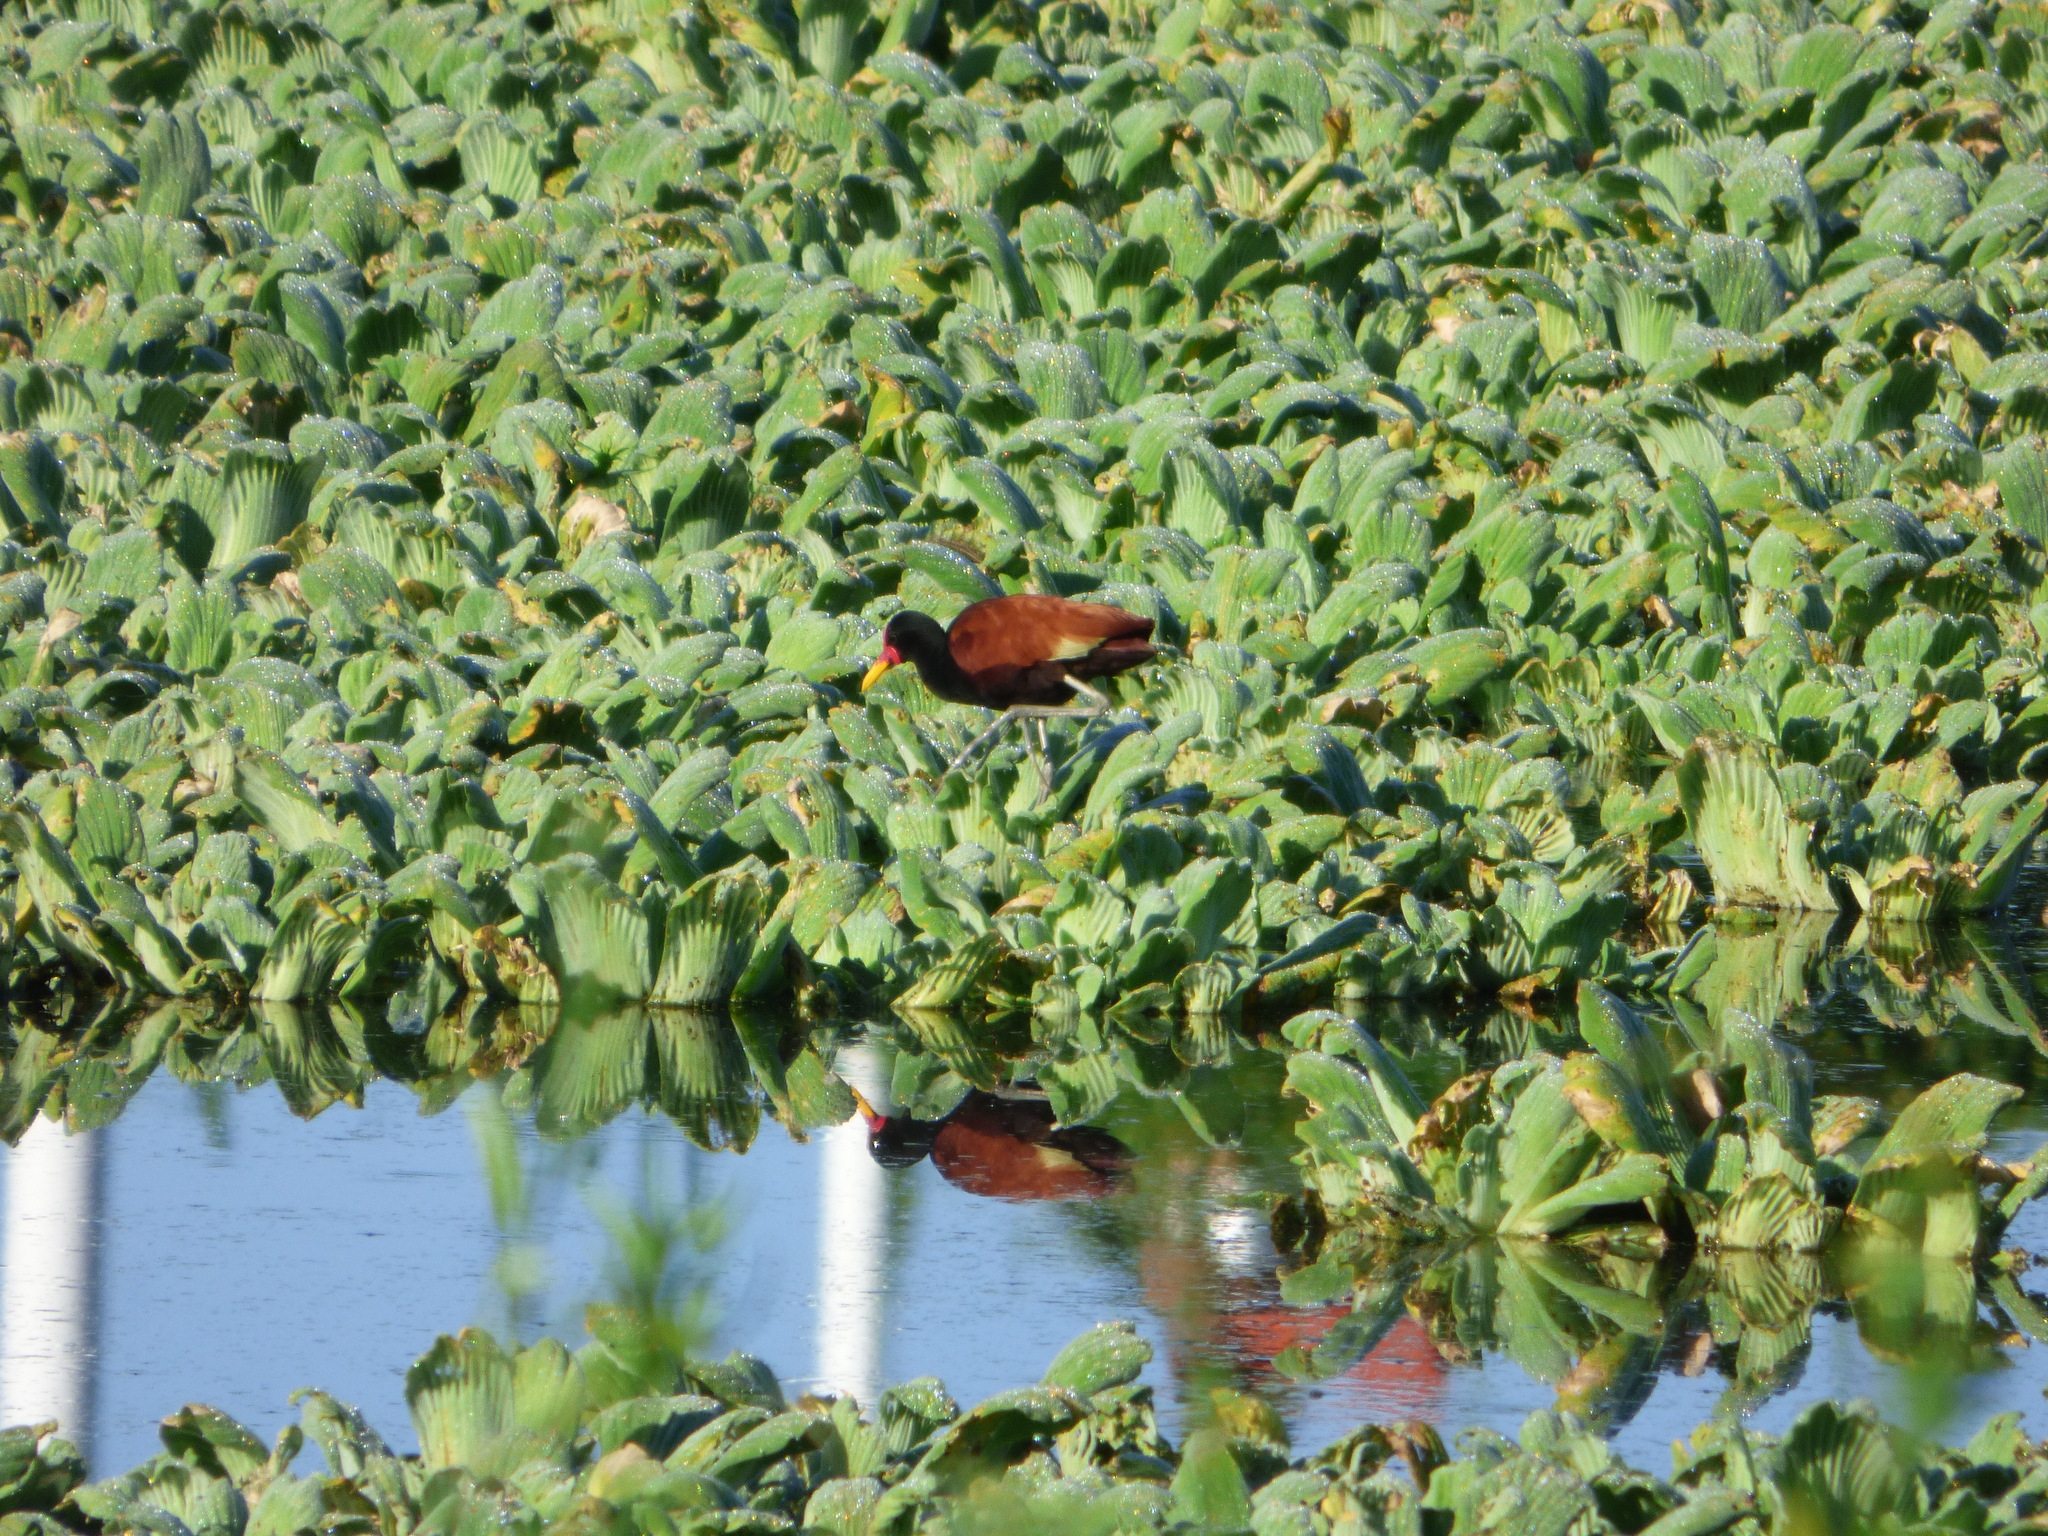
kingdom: Animalia
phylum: Chordata
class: Aves
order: Charadriiformes
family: Jacanidae
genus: Jacana
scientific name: Jacana jacana
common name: Wattled jacana
